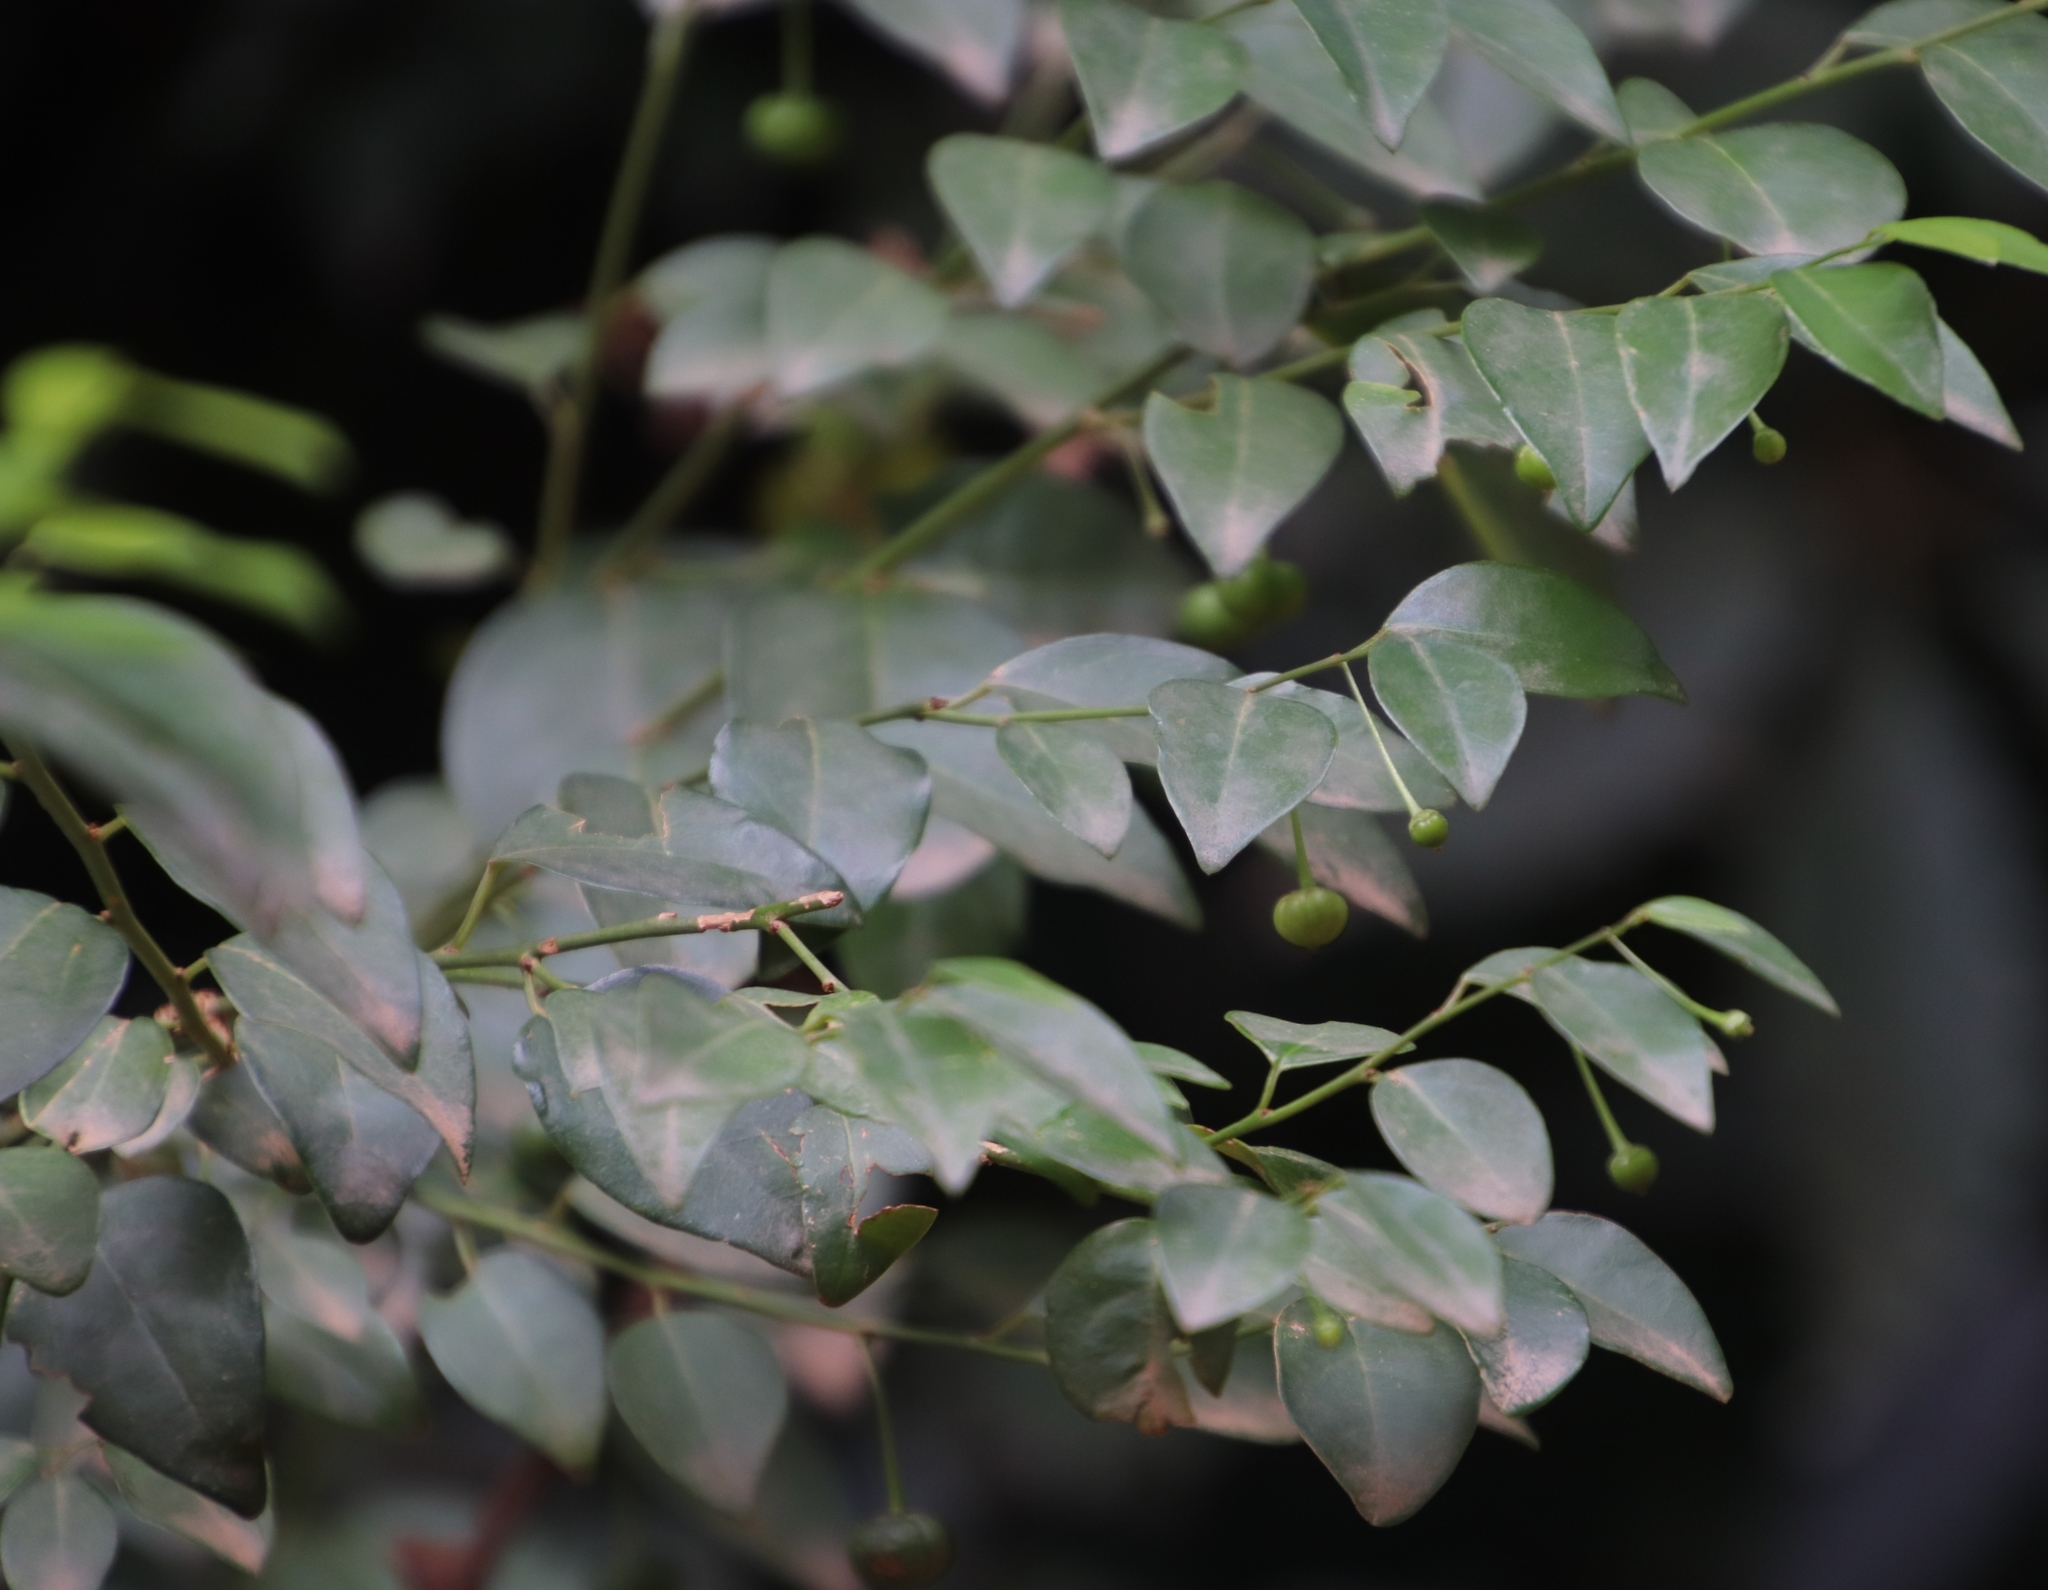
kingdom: Plantae
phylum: Tracheophyta
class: Magnoliopsida
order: Malpighiales
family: Phyllanthaceae
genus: Pseudophyllanthus
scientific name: Pseudophyllanthus ovalis
